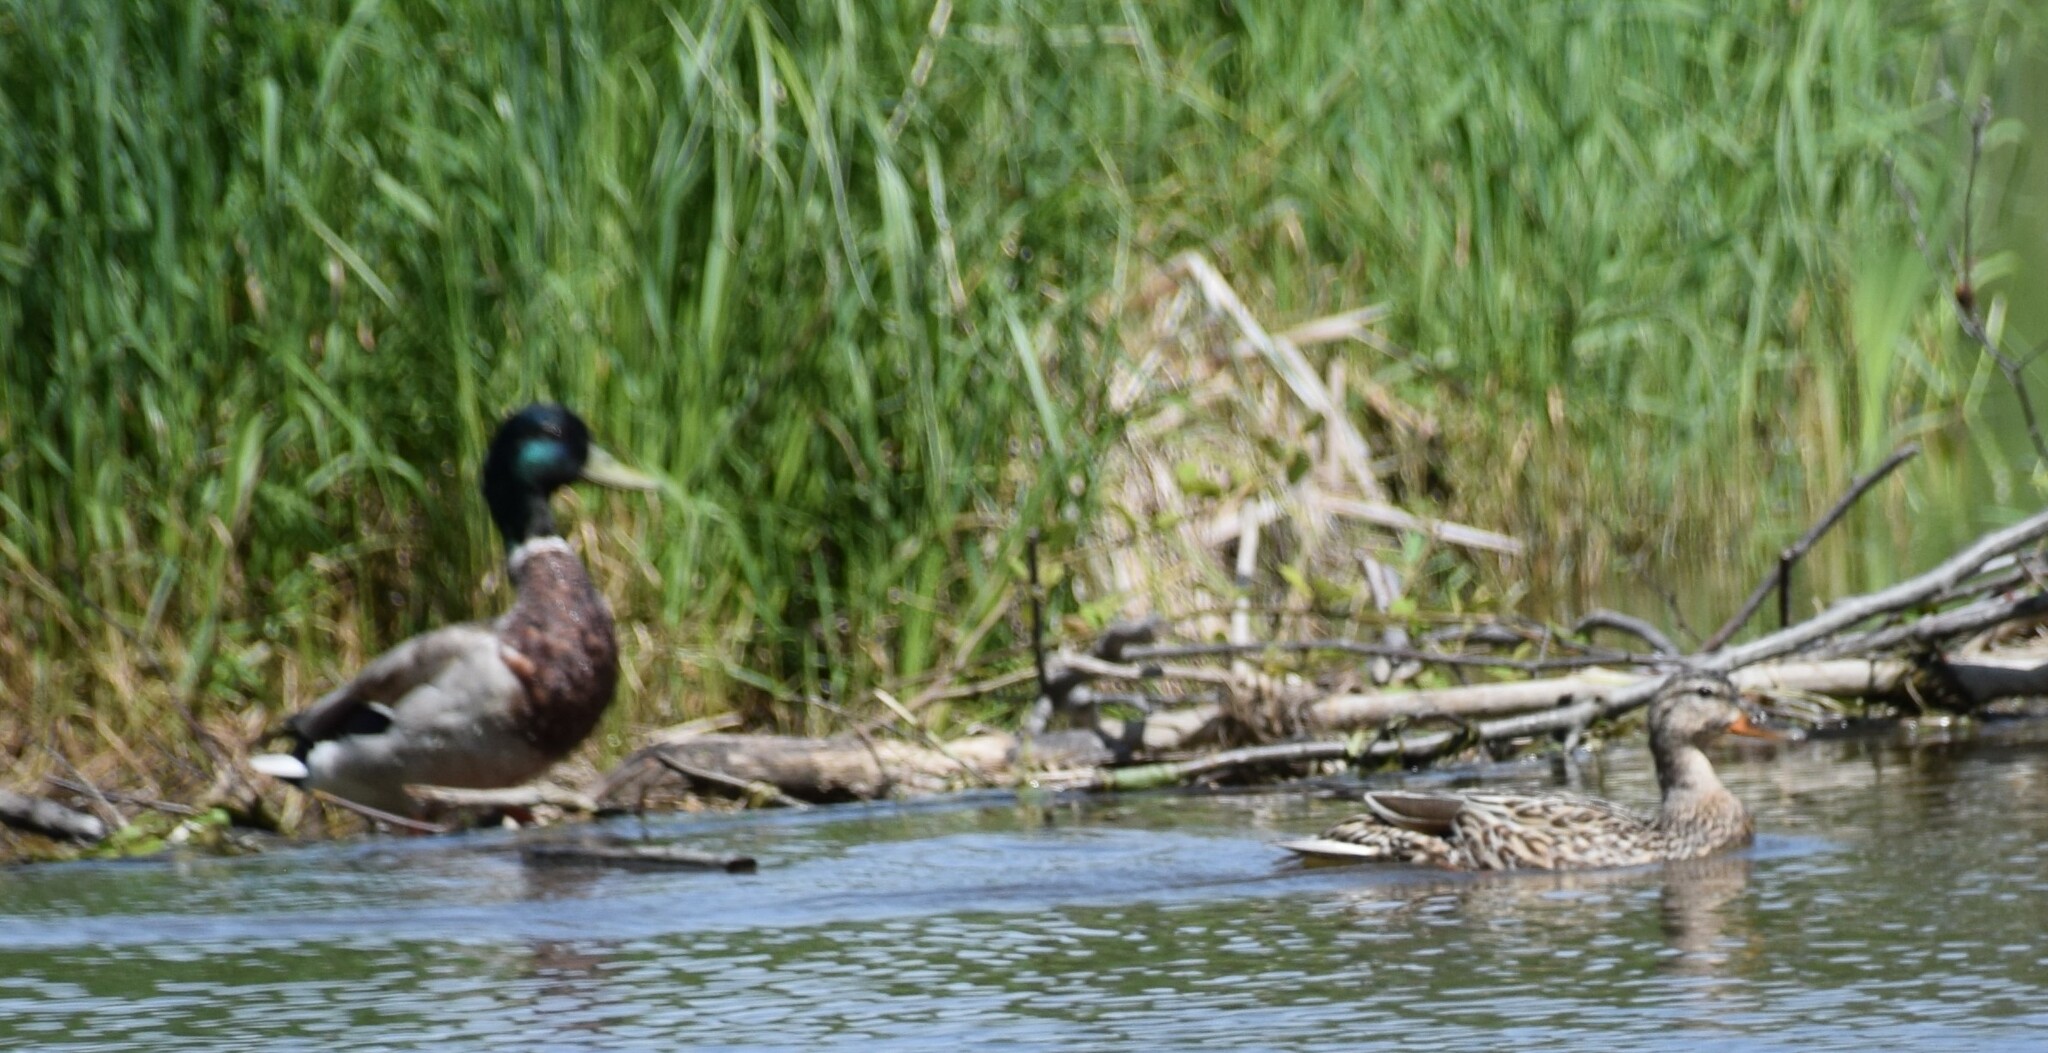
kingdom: Animalia
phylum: Chordata
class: Aves
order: Anseriformes
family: Anatidae
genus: Anas
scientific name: Anas platyrhynchos
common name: Mallard
